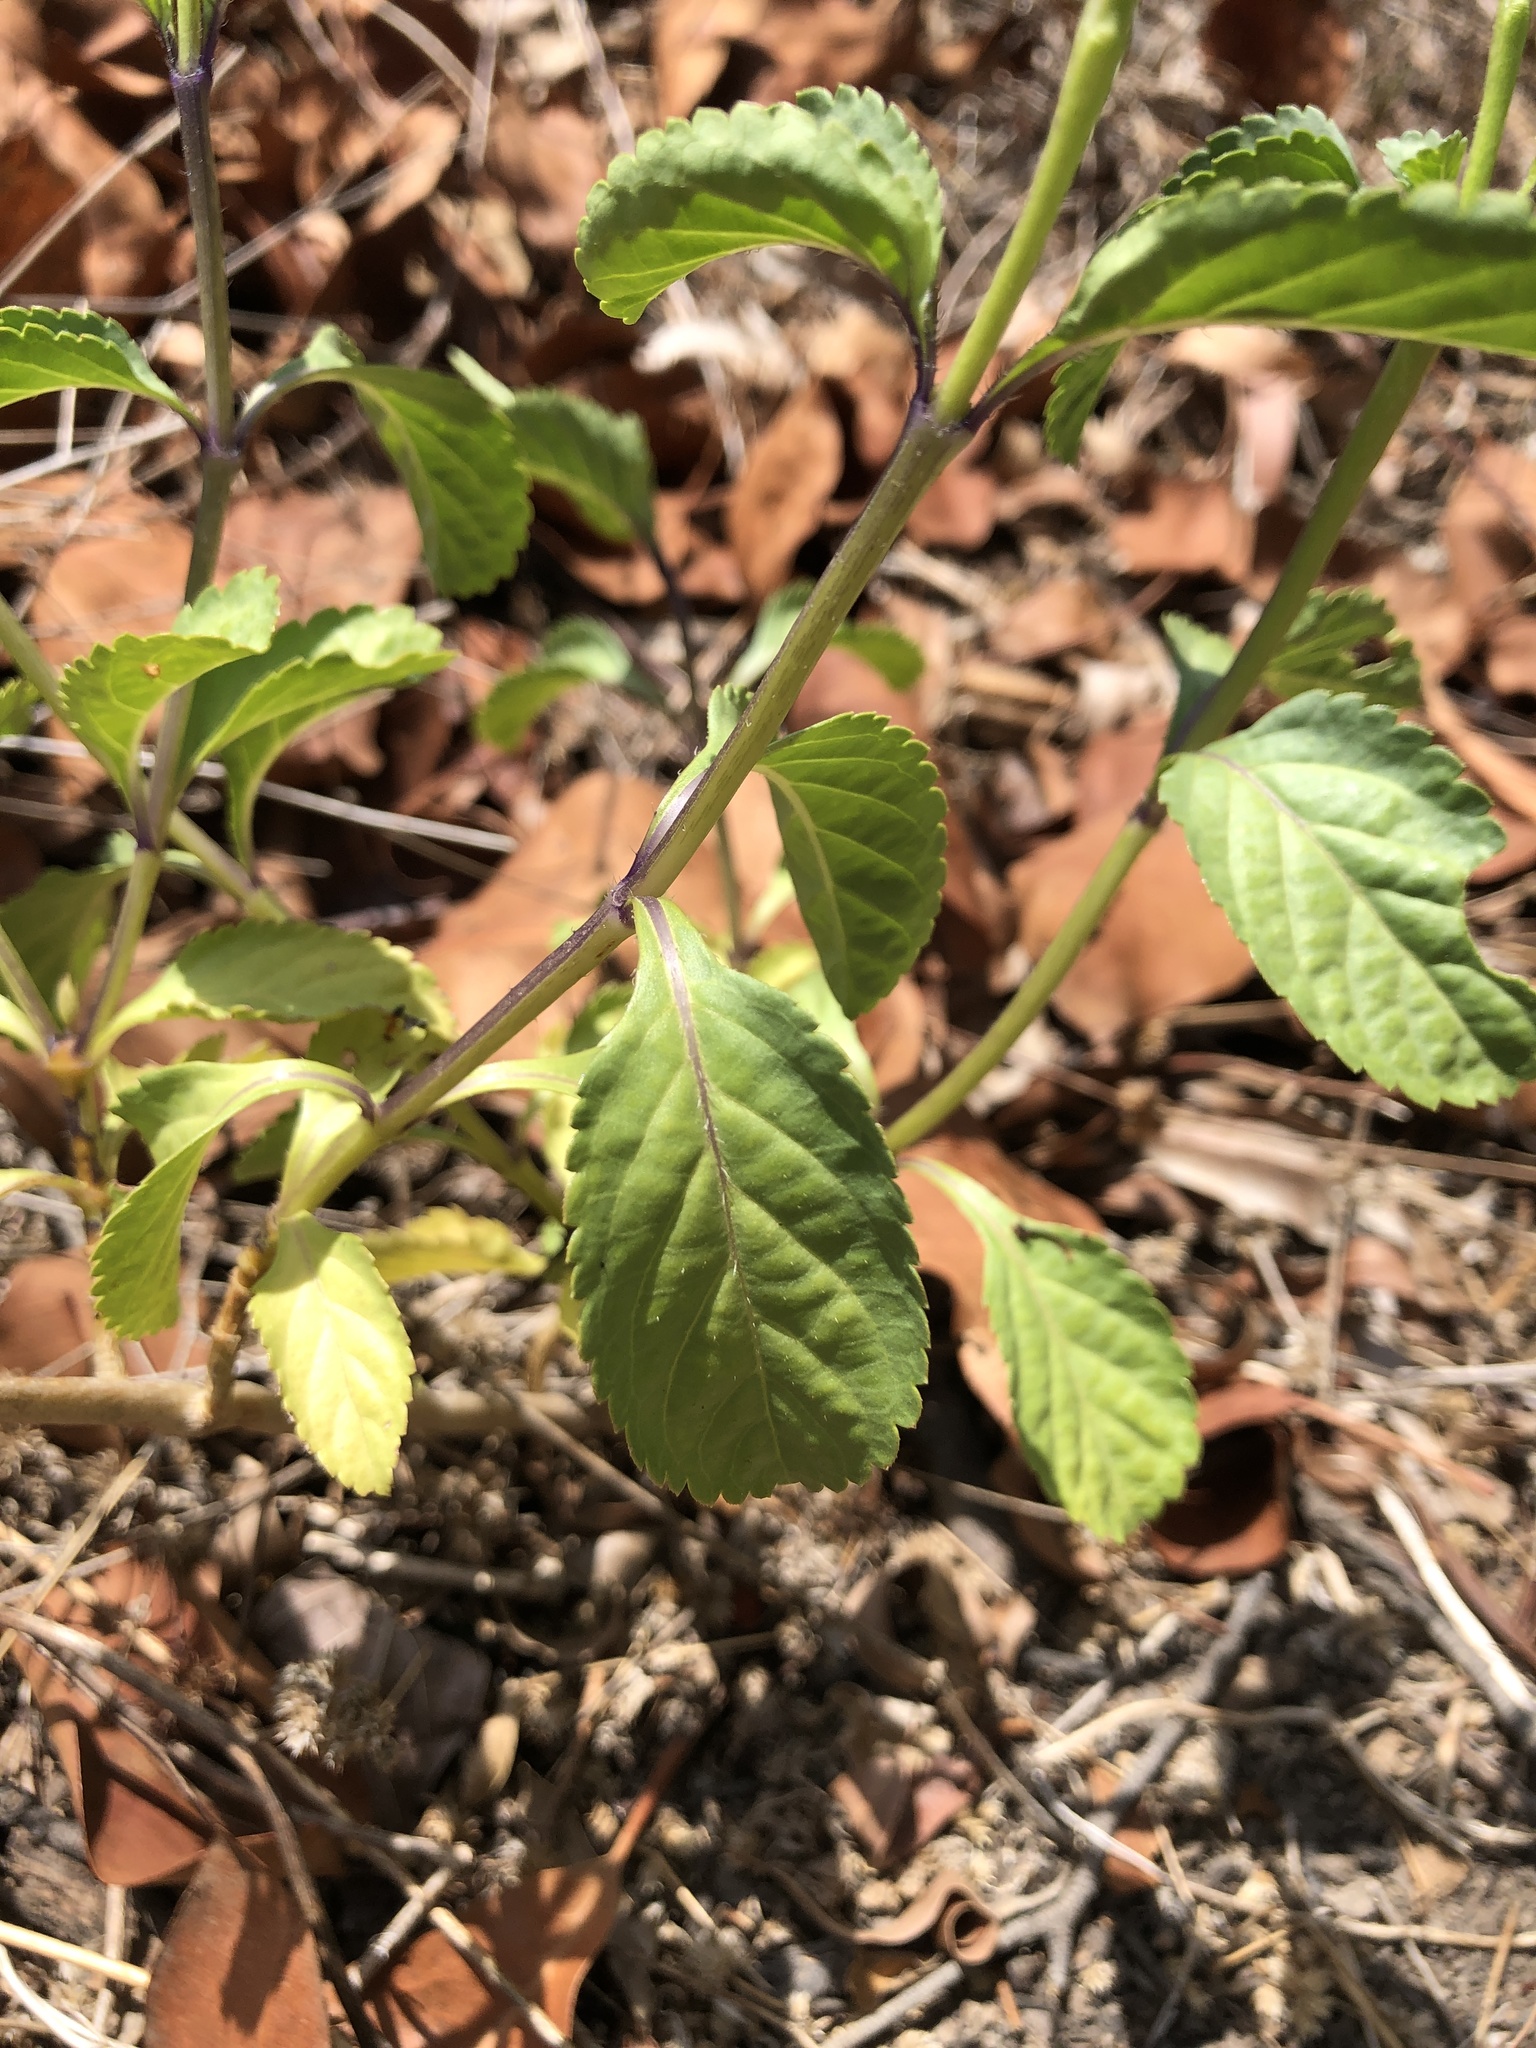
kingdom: Plantae
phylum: Tracheophyta
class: Magnoliopsida
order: Lamiales
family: Verbenaceae
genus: Stachytarpheta
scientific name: Stachytarpheta jamaicensis
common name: Light-blue snakeweed
